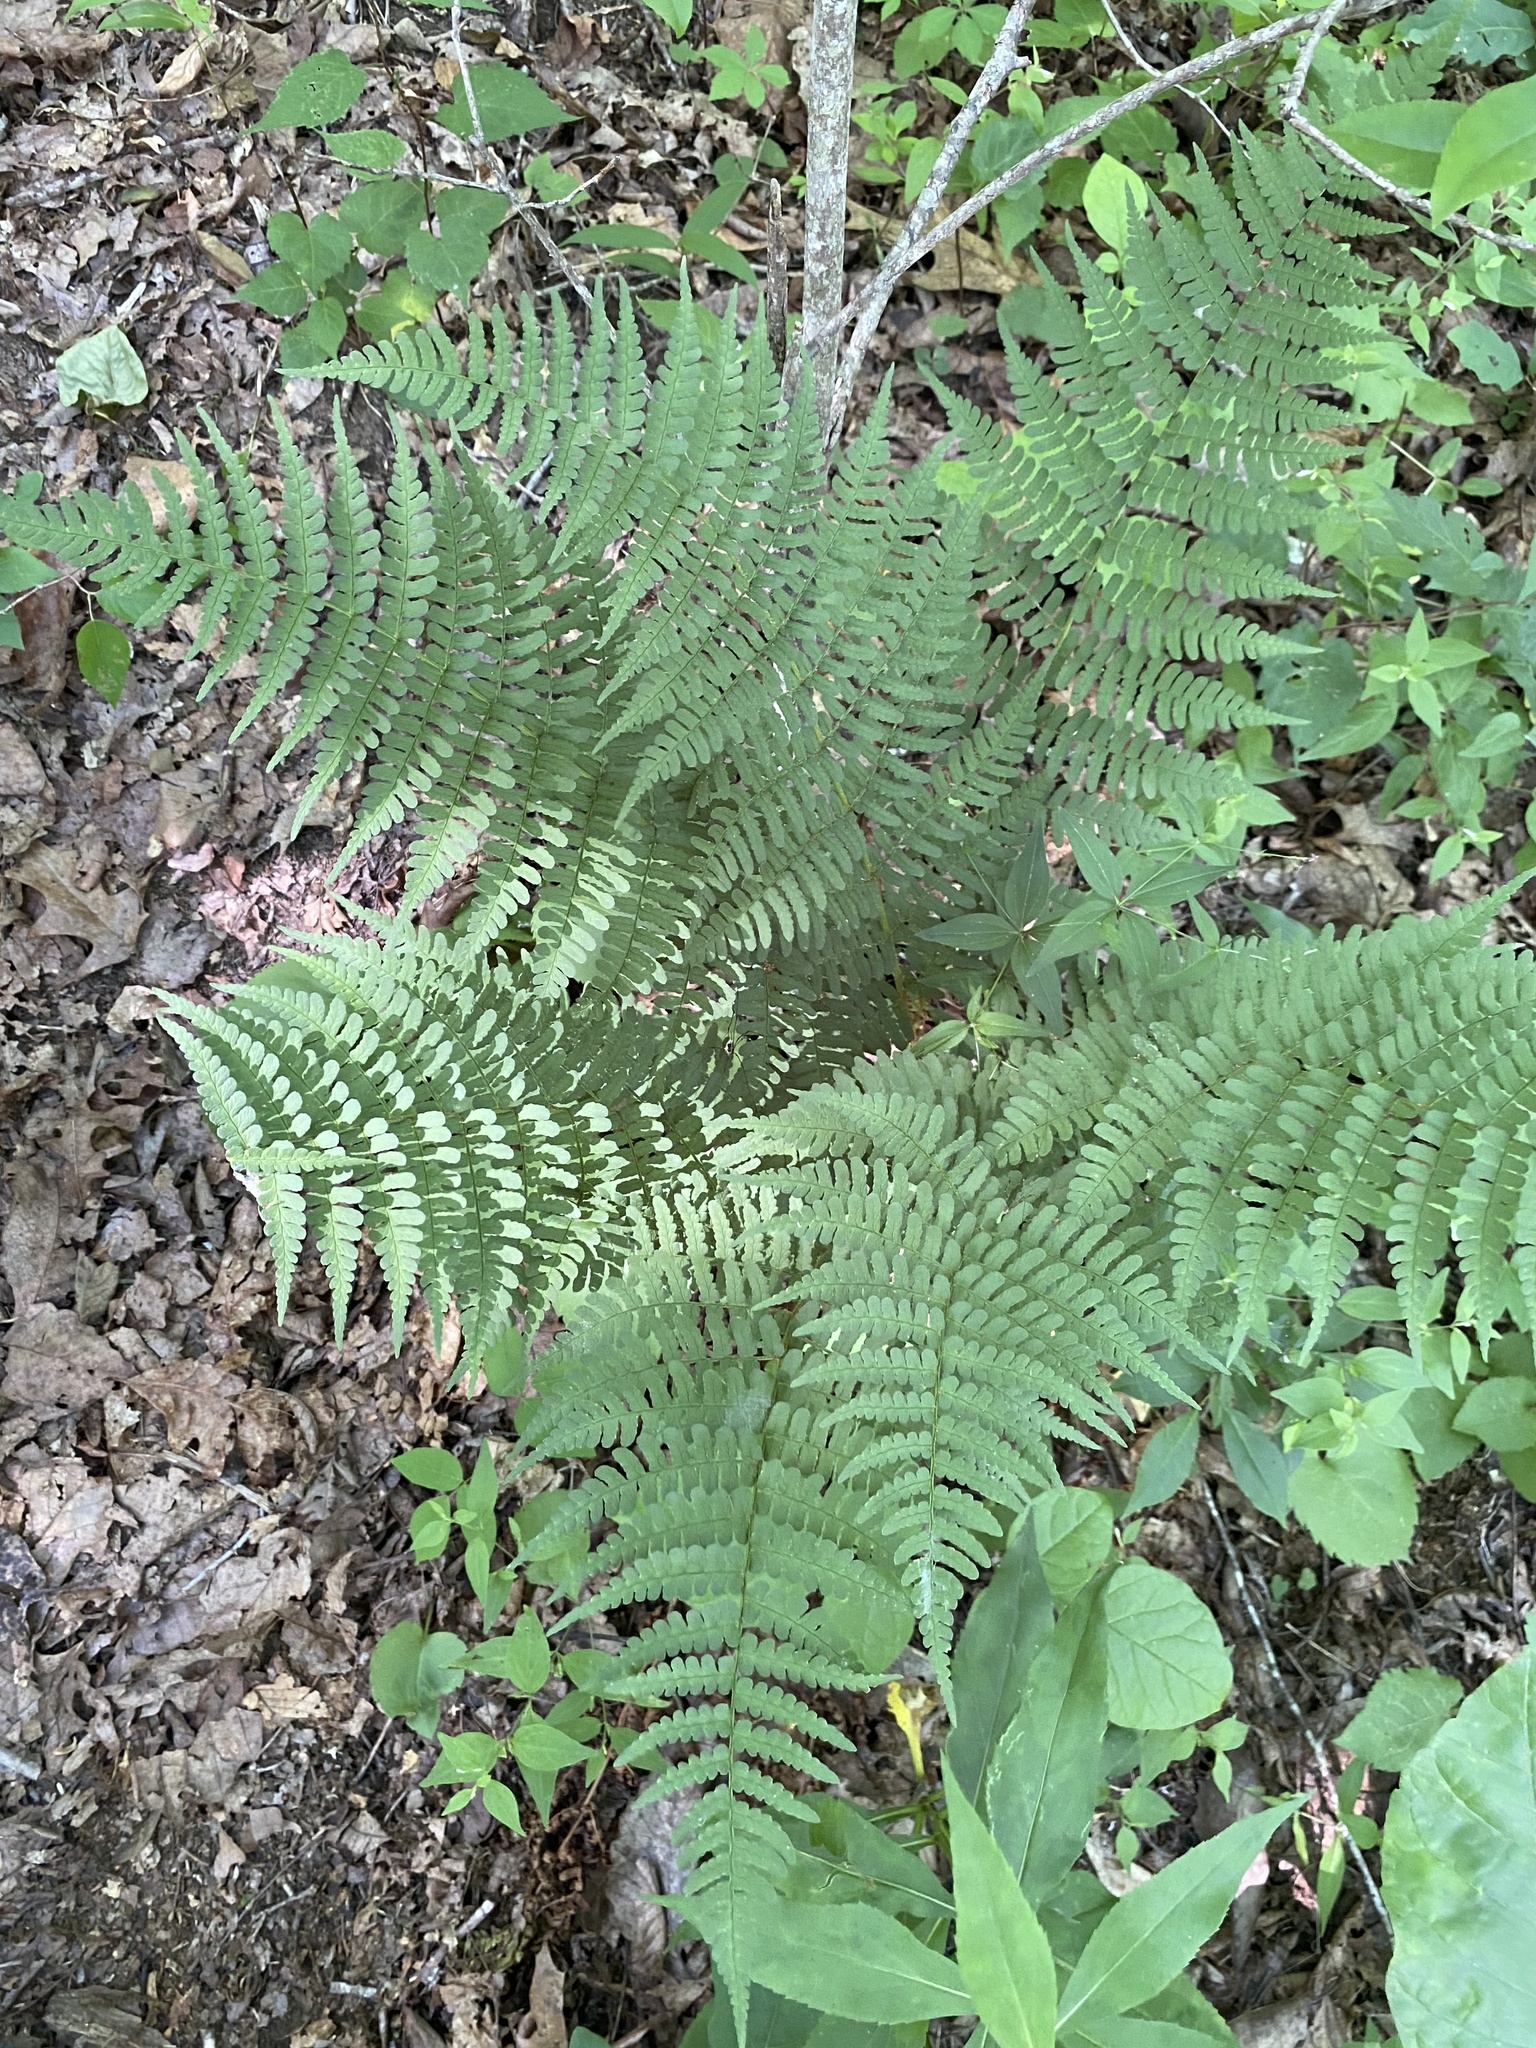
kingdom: Plantae
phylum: Tracheophyta
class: Polypodiopsida
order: Polypodiales
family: Dryopteridaceae
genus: Dryopteris
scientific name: Dryopteris marginalis
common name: Marginal wood fern
